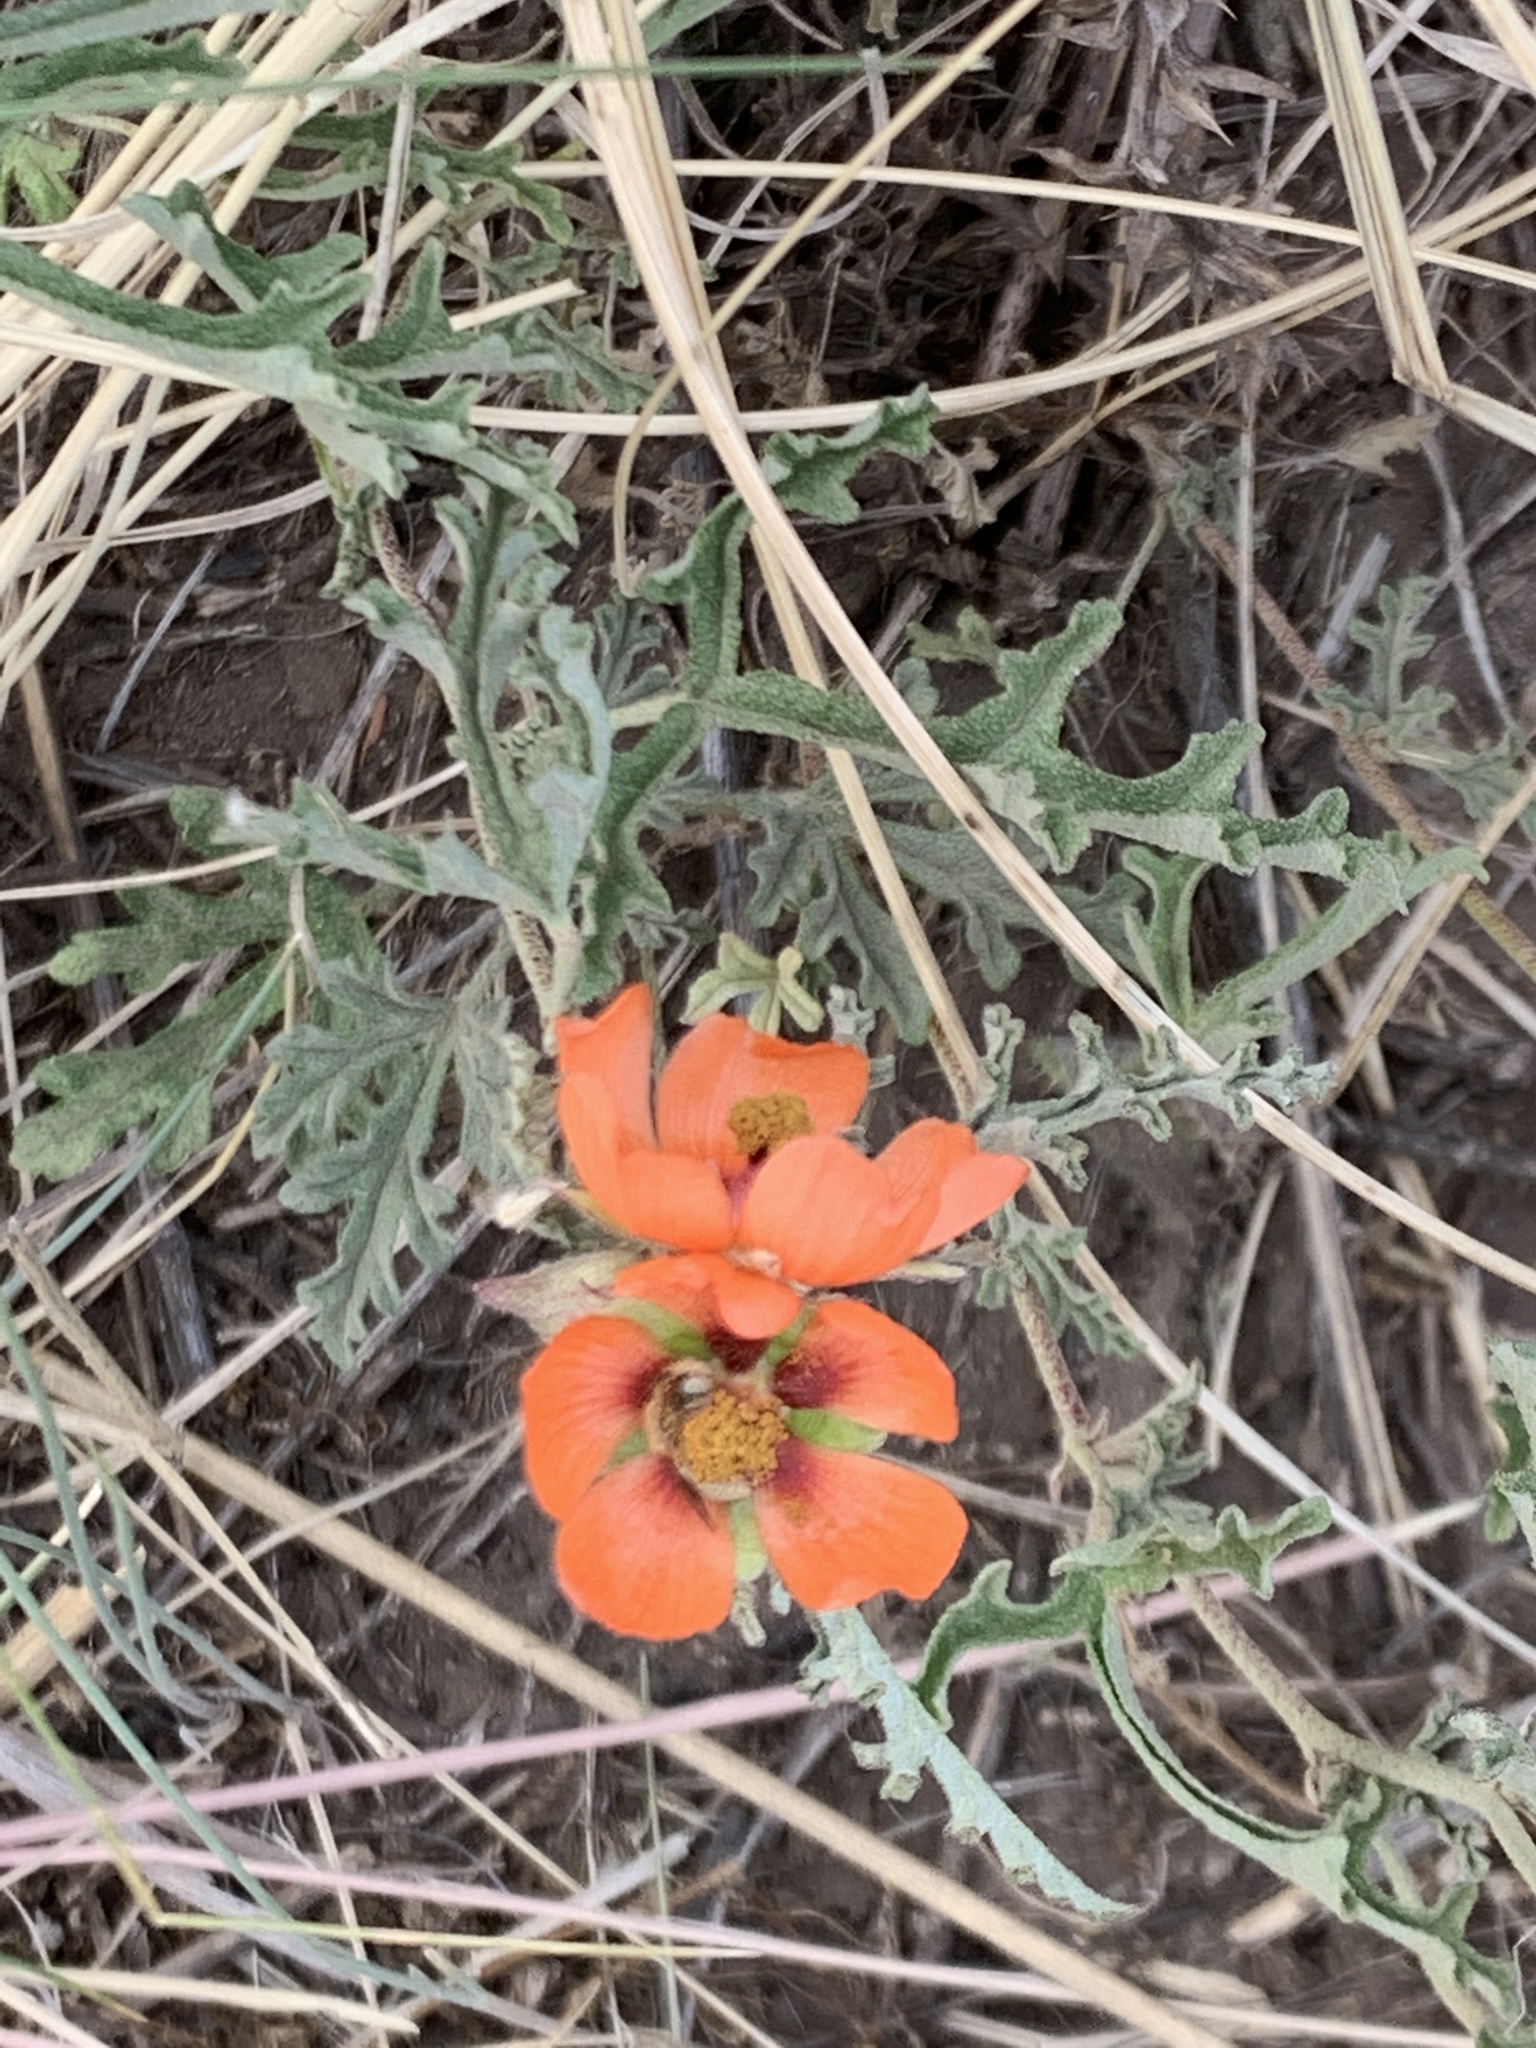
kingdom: Plantae
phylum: Tracheophyta
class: Magnoliopsida
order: Malvales
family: Malvaceae
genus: Sphaeralcea
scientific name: Sphaeralcea australis
